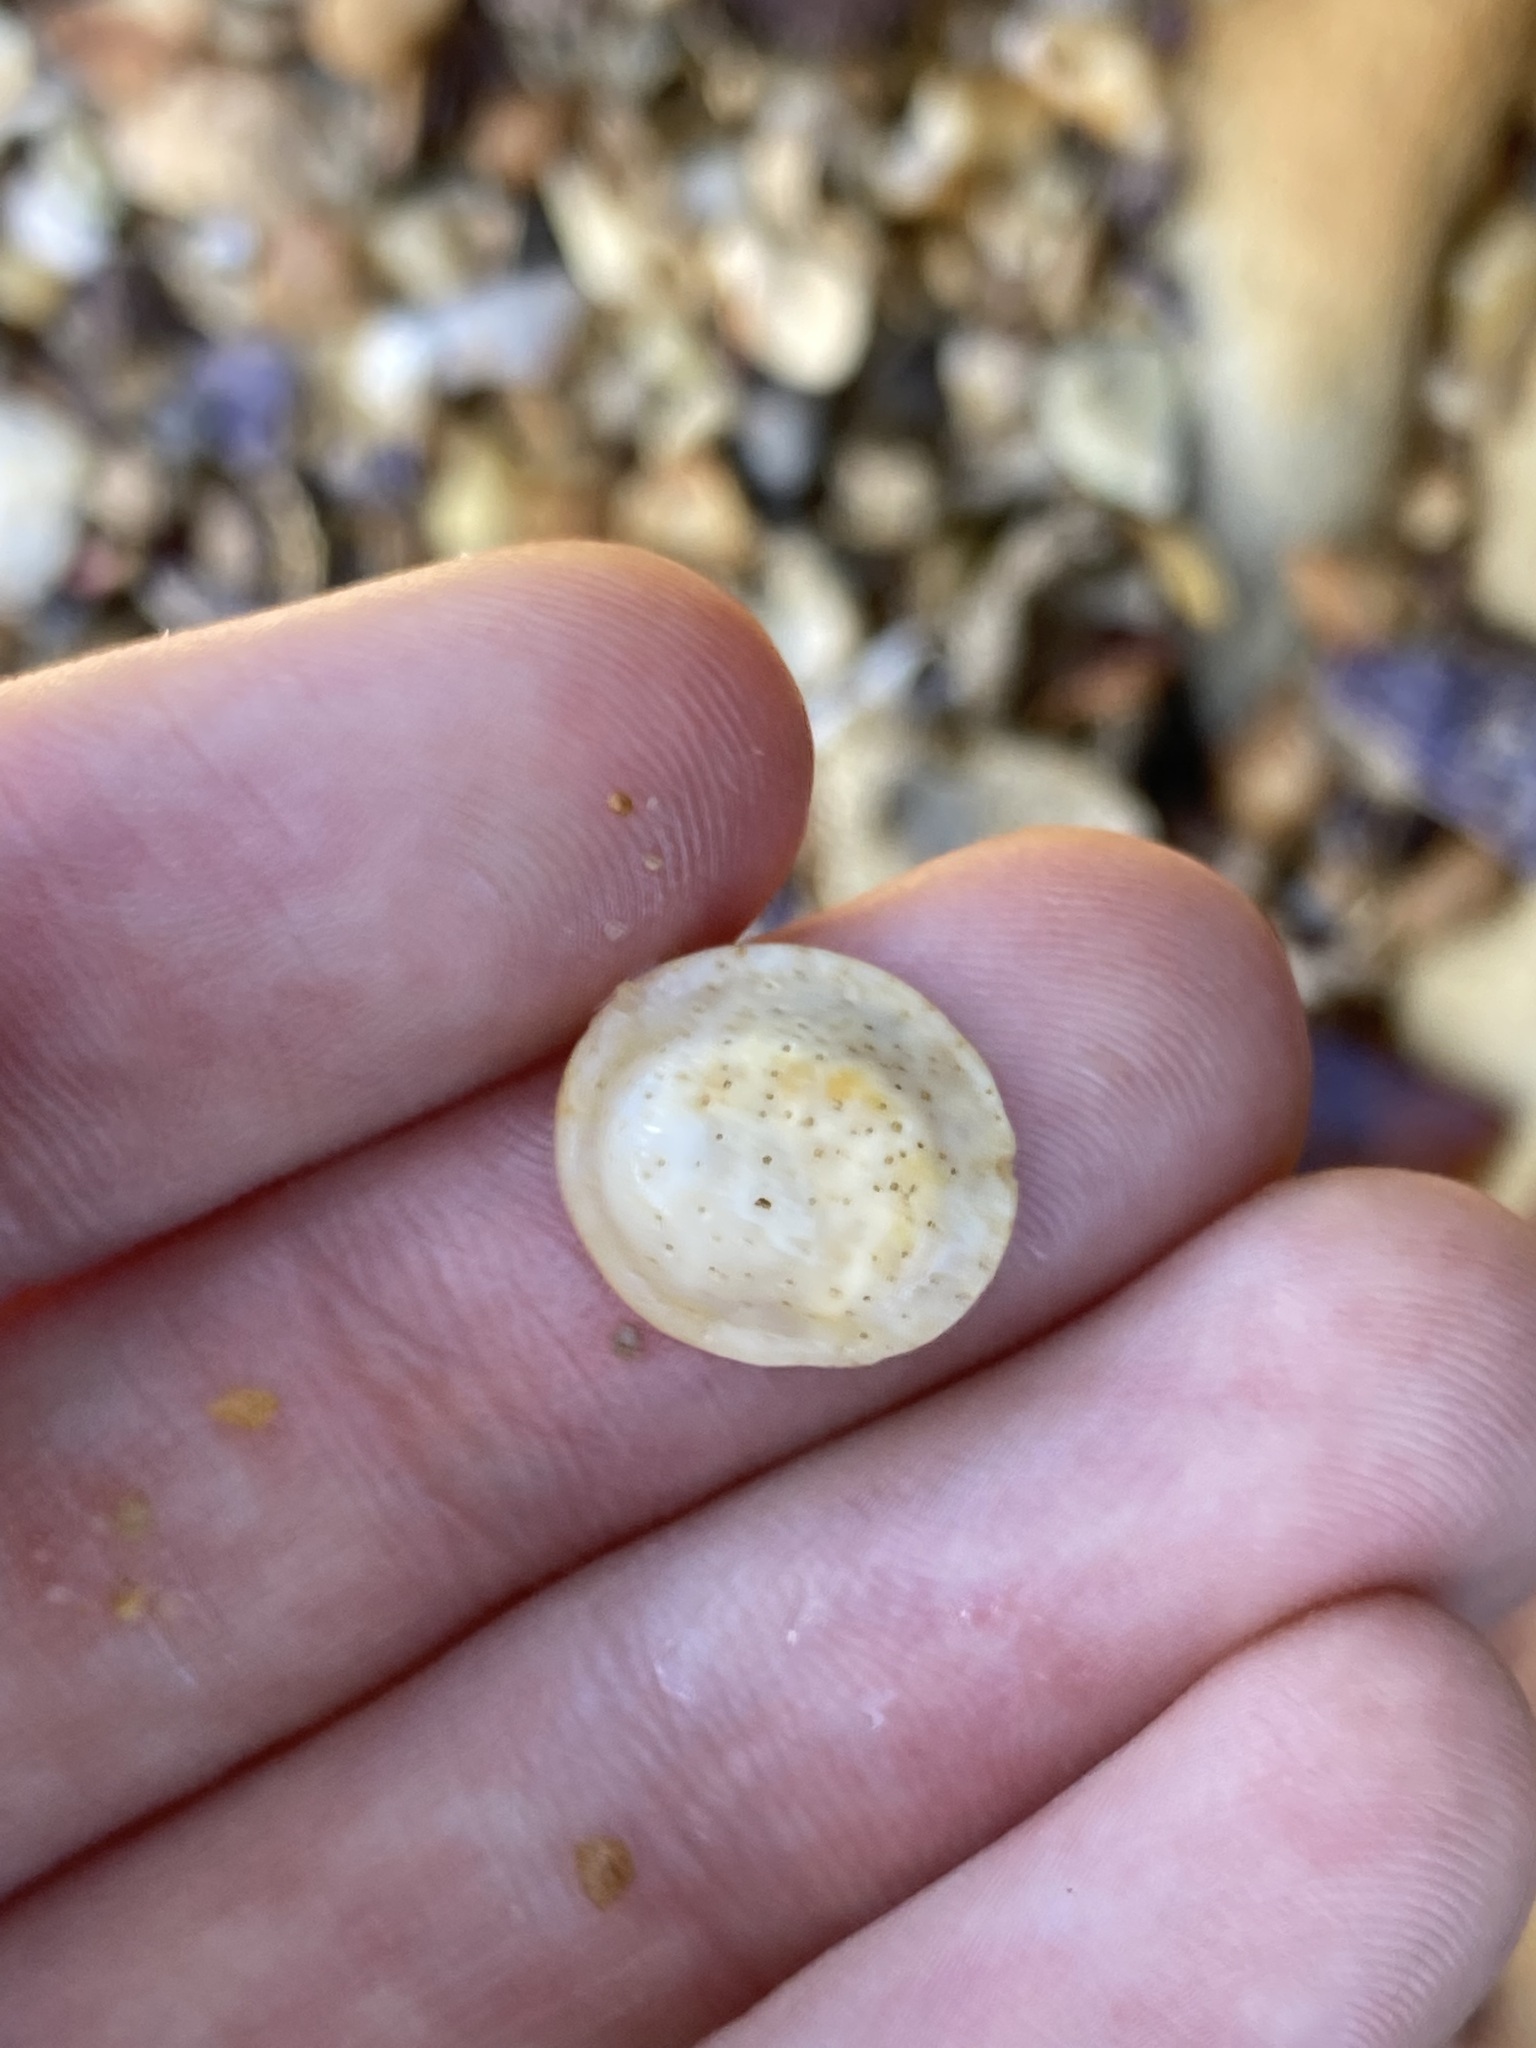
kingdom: Animalia
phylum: Mollusca
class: Gastropoda
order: Trochida
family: Turbinidae
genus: Lunella
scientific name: Lunella undulata
